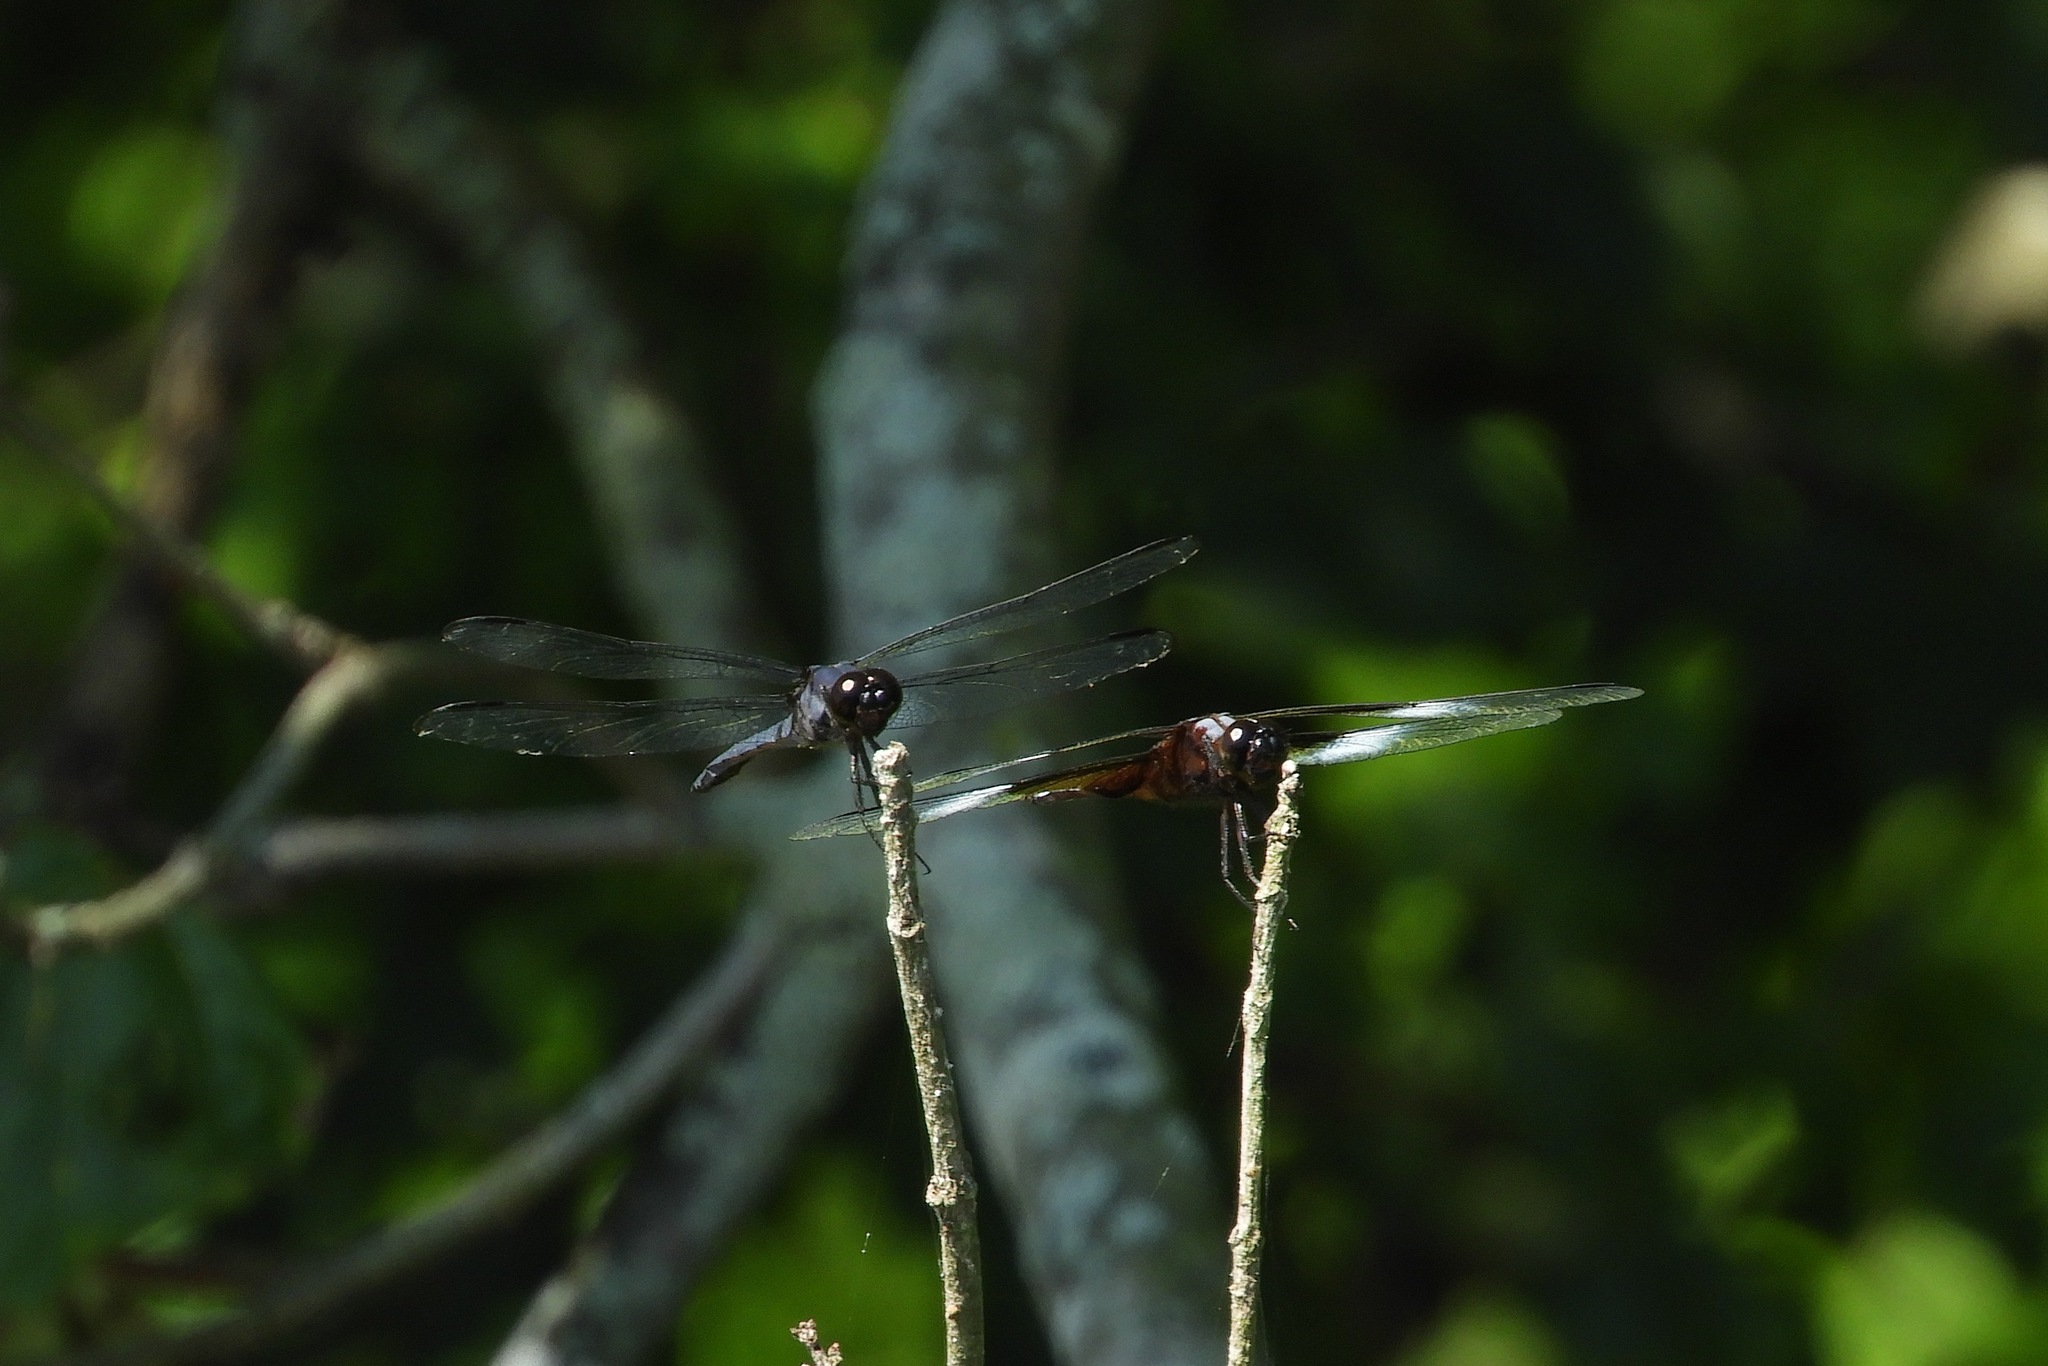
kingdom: Animalia
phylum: Arthropoda
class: Insecta
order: Odonata
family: Libellulidae
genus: Libellula
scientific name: Libellula luctuosa
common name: Widow skimmer
